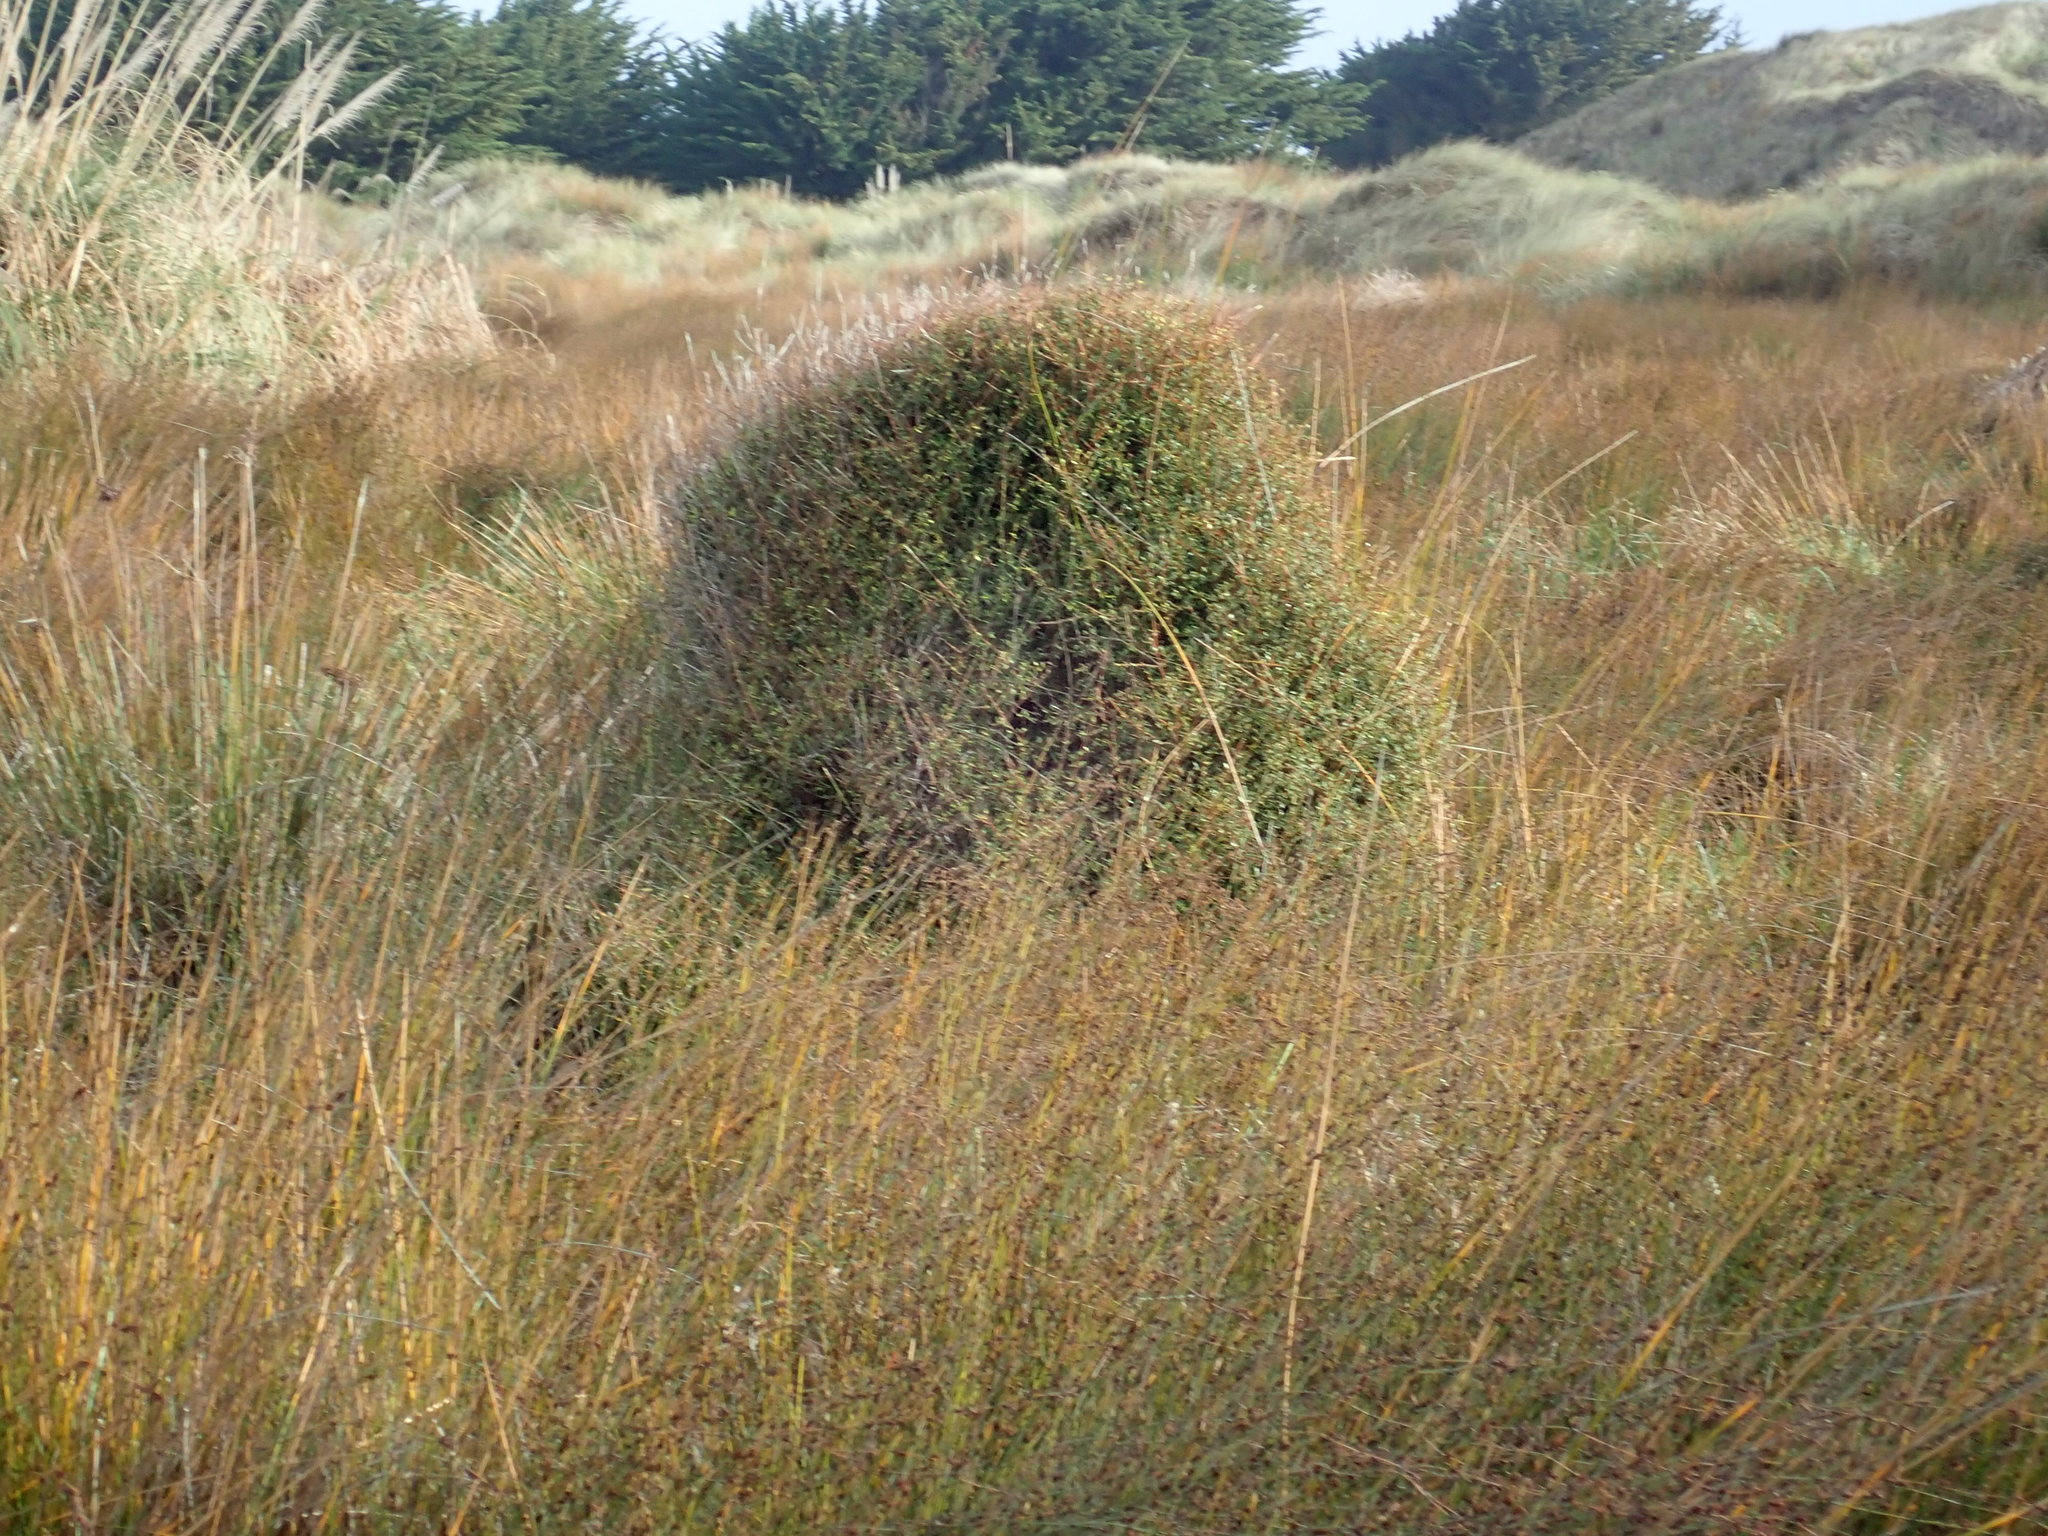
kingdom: Plantae
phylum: Tracheophyta
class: Magnoliopsida
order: Gentianales
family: Rubiaceae
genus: Coprosma
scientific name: Coprosma propinqua
